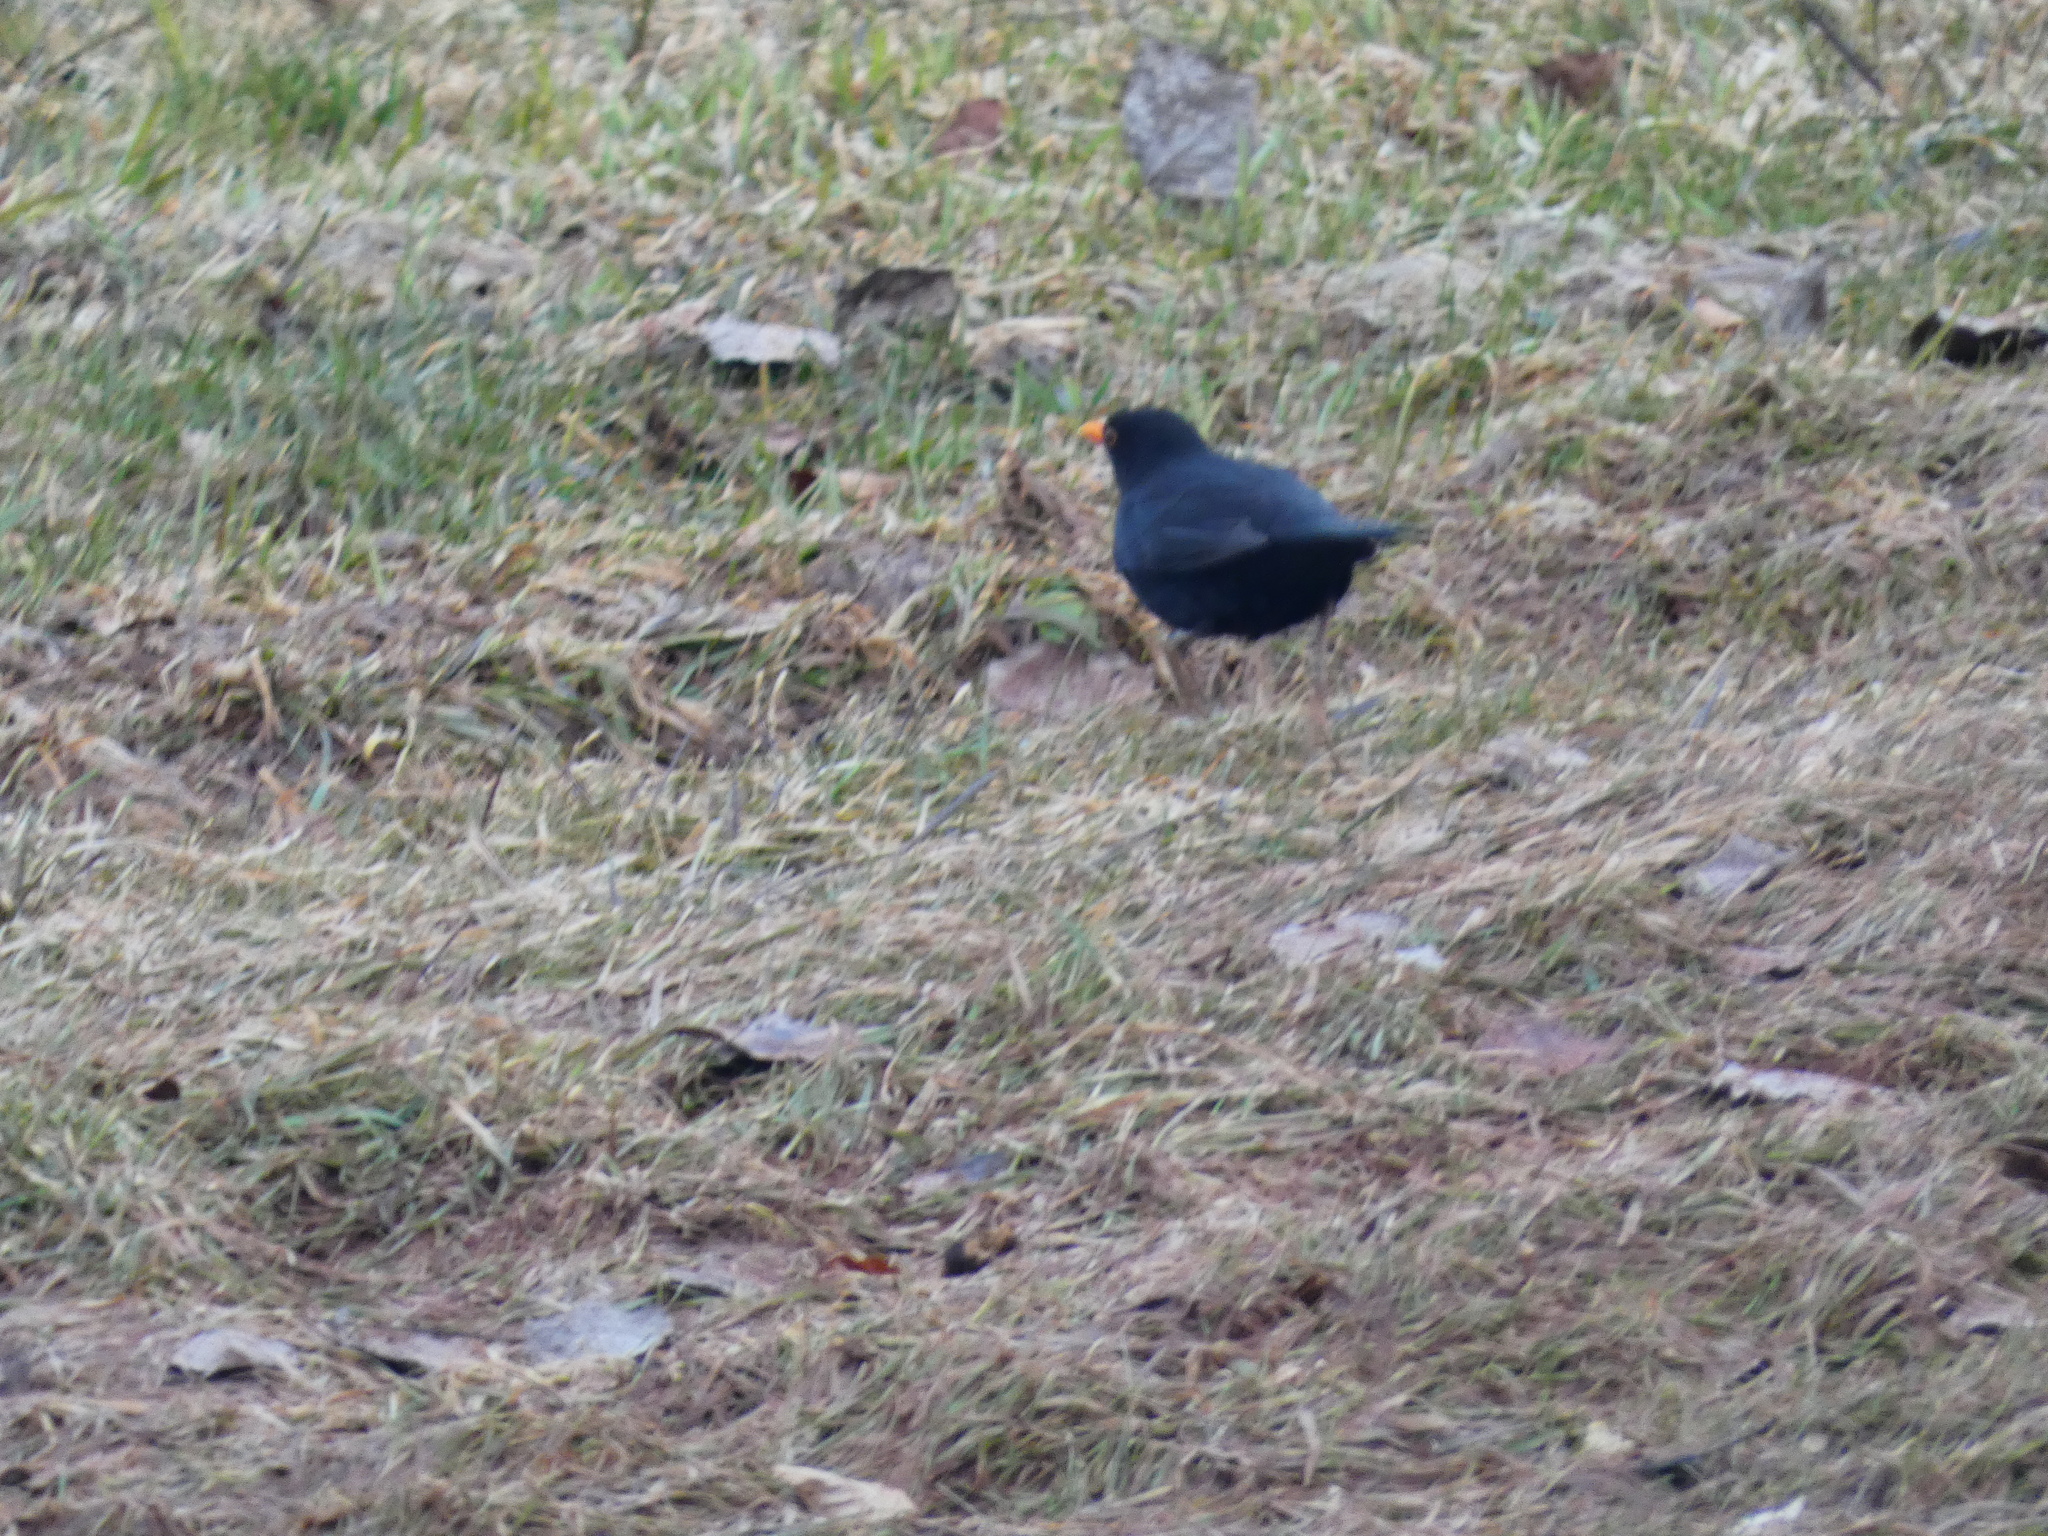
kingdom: Animalia
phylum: Chordata
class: Aves
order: Passeriformes
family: Turdidae
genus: Turdus
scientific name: Turdus merula
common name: Common blackbird
